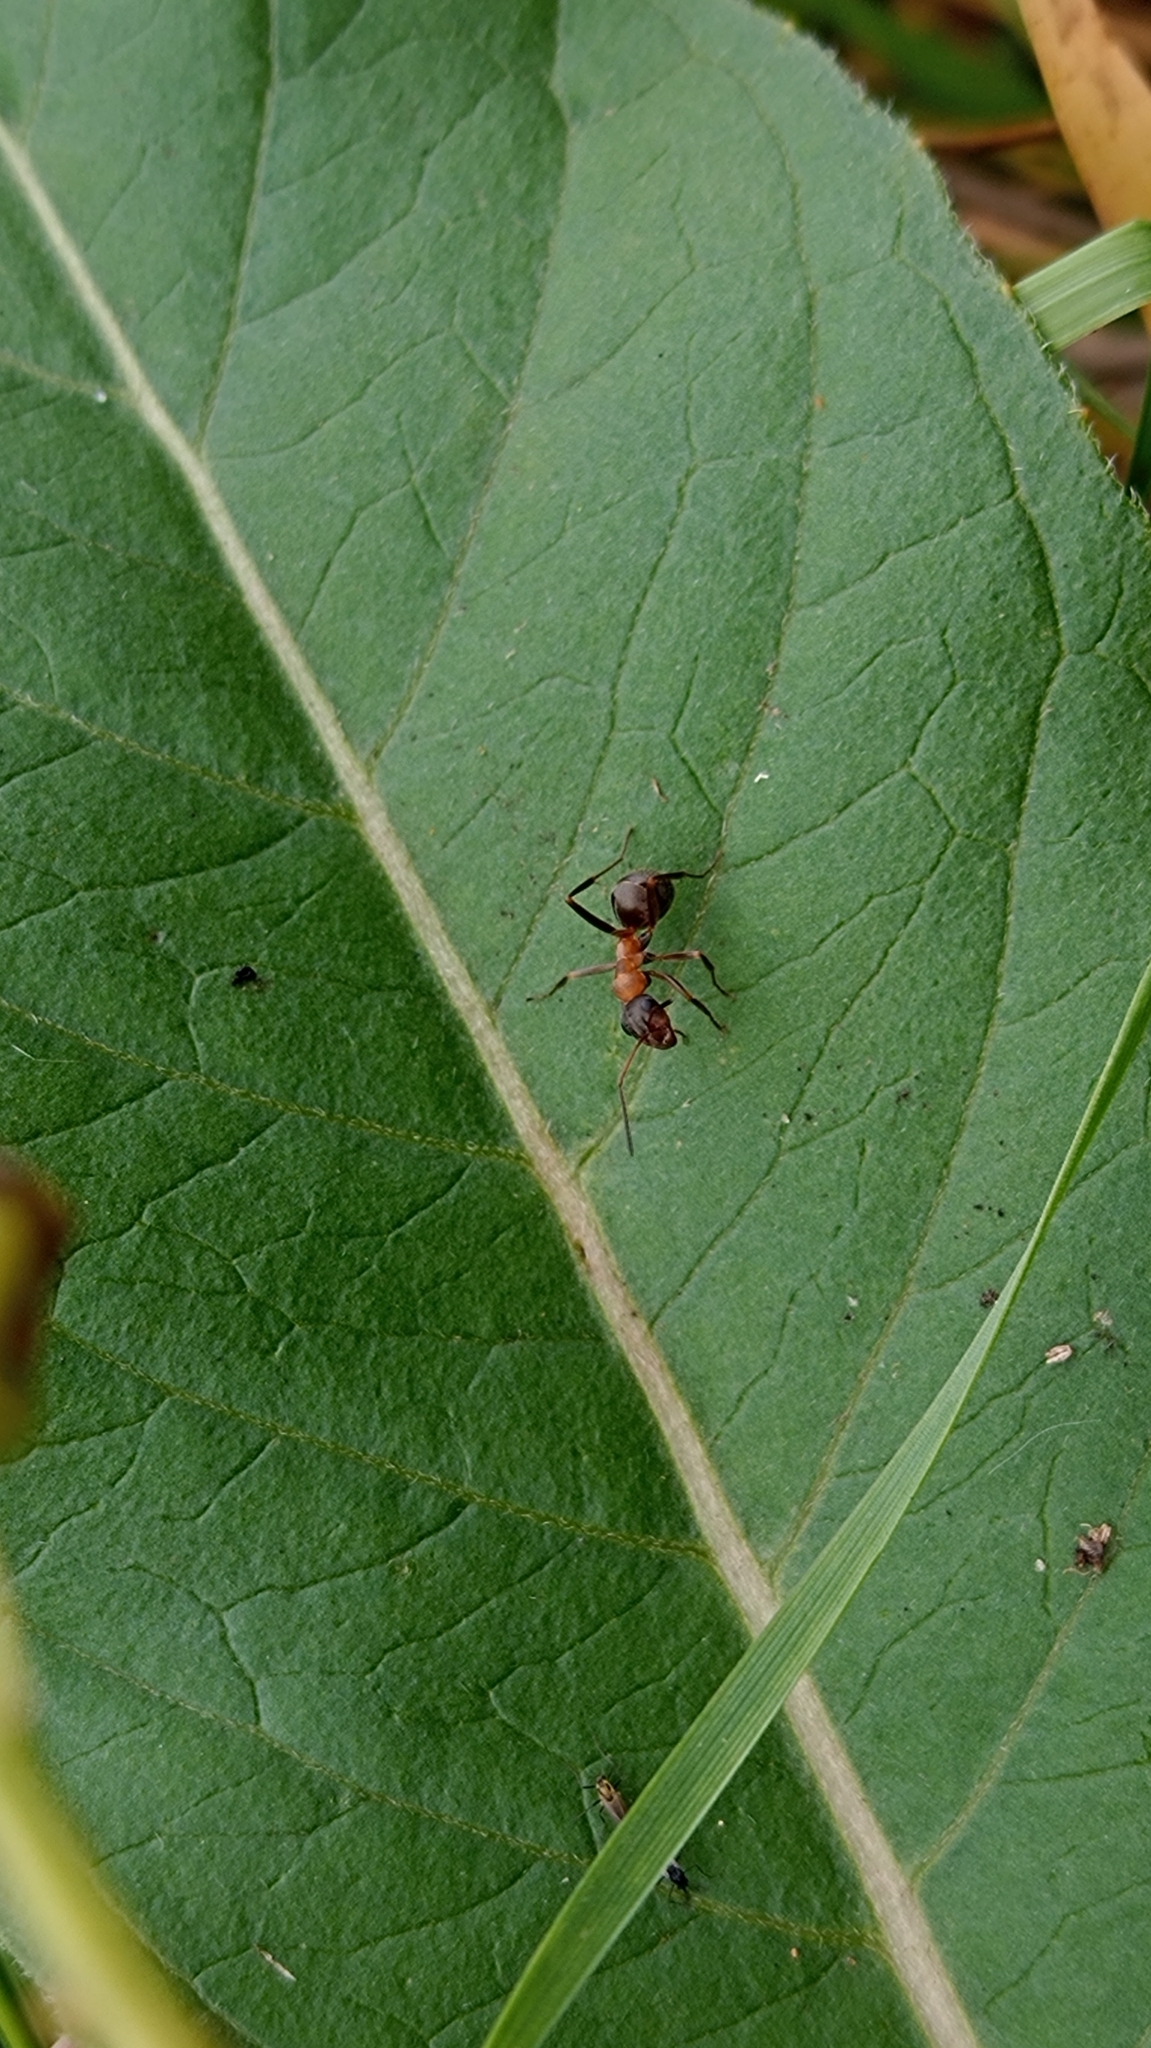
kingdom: Animalia
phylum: Arthropoda
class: Insecta
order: Hymenoptera
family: Formicidae
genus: Formica
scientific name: Formica
